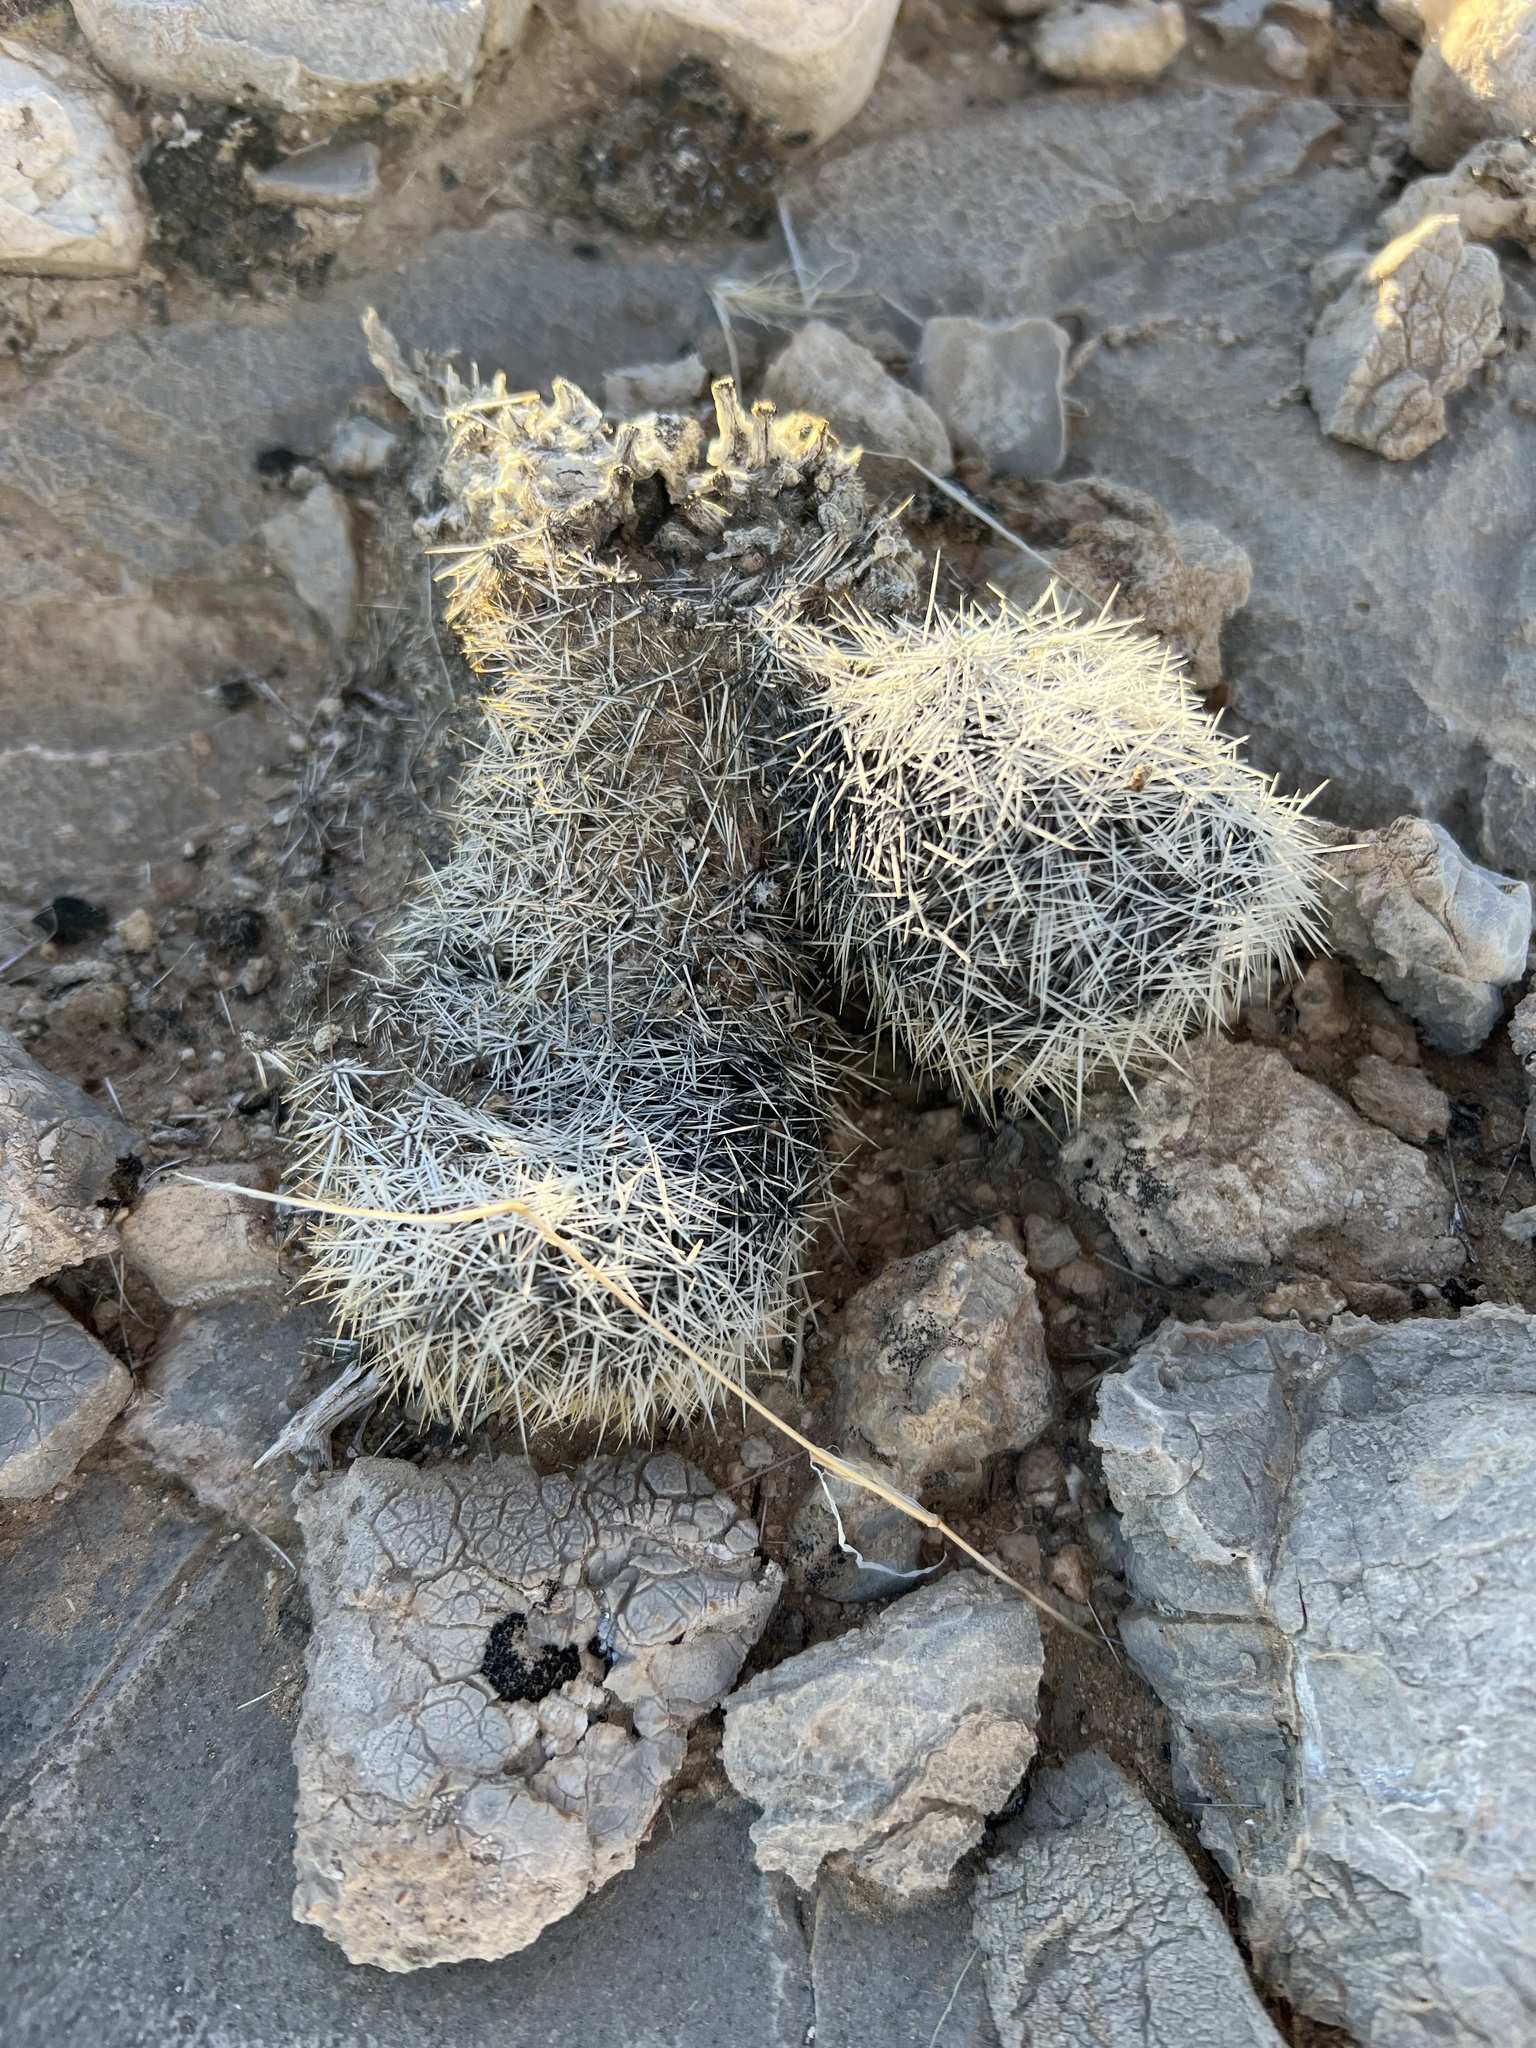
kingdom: Plantae
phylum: Tracheophyta
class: Magnoliopsida
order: Caryophyllales
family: Cactaceae
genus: Pelecyphora
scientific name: Pelecyphora dasyacantha
